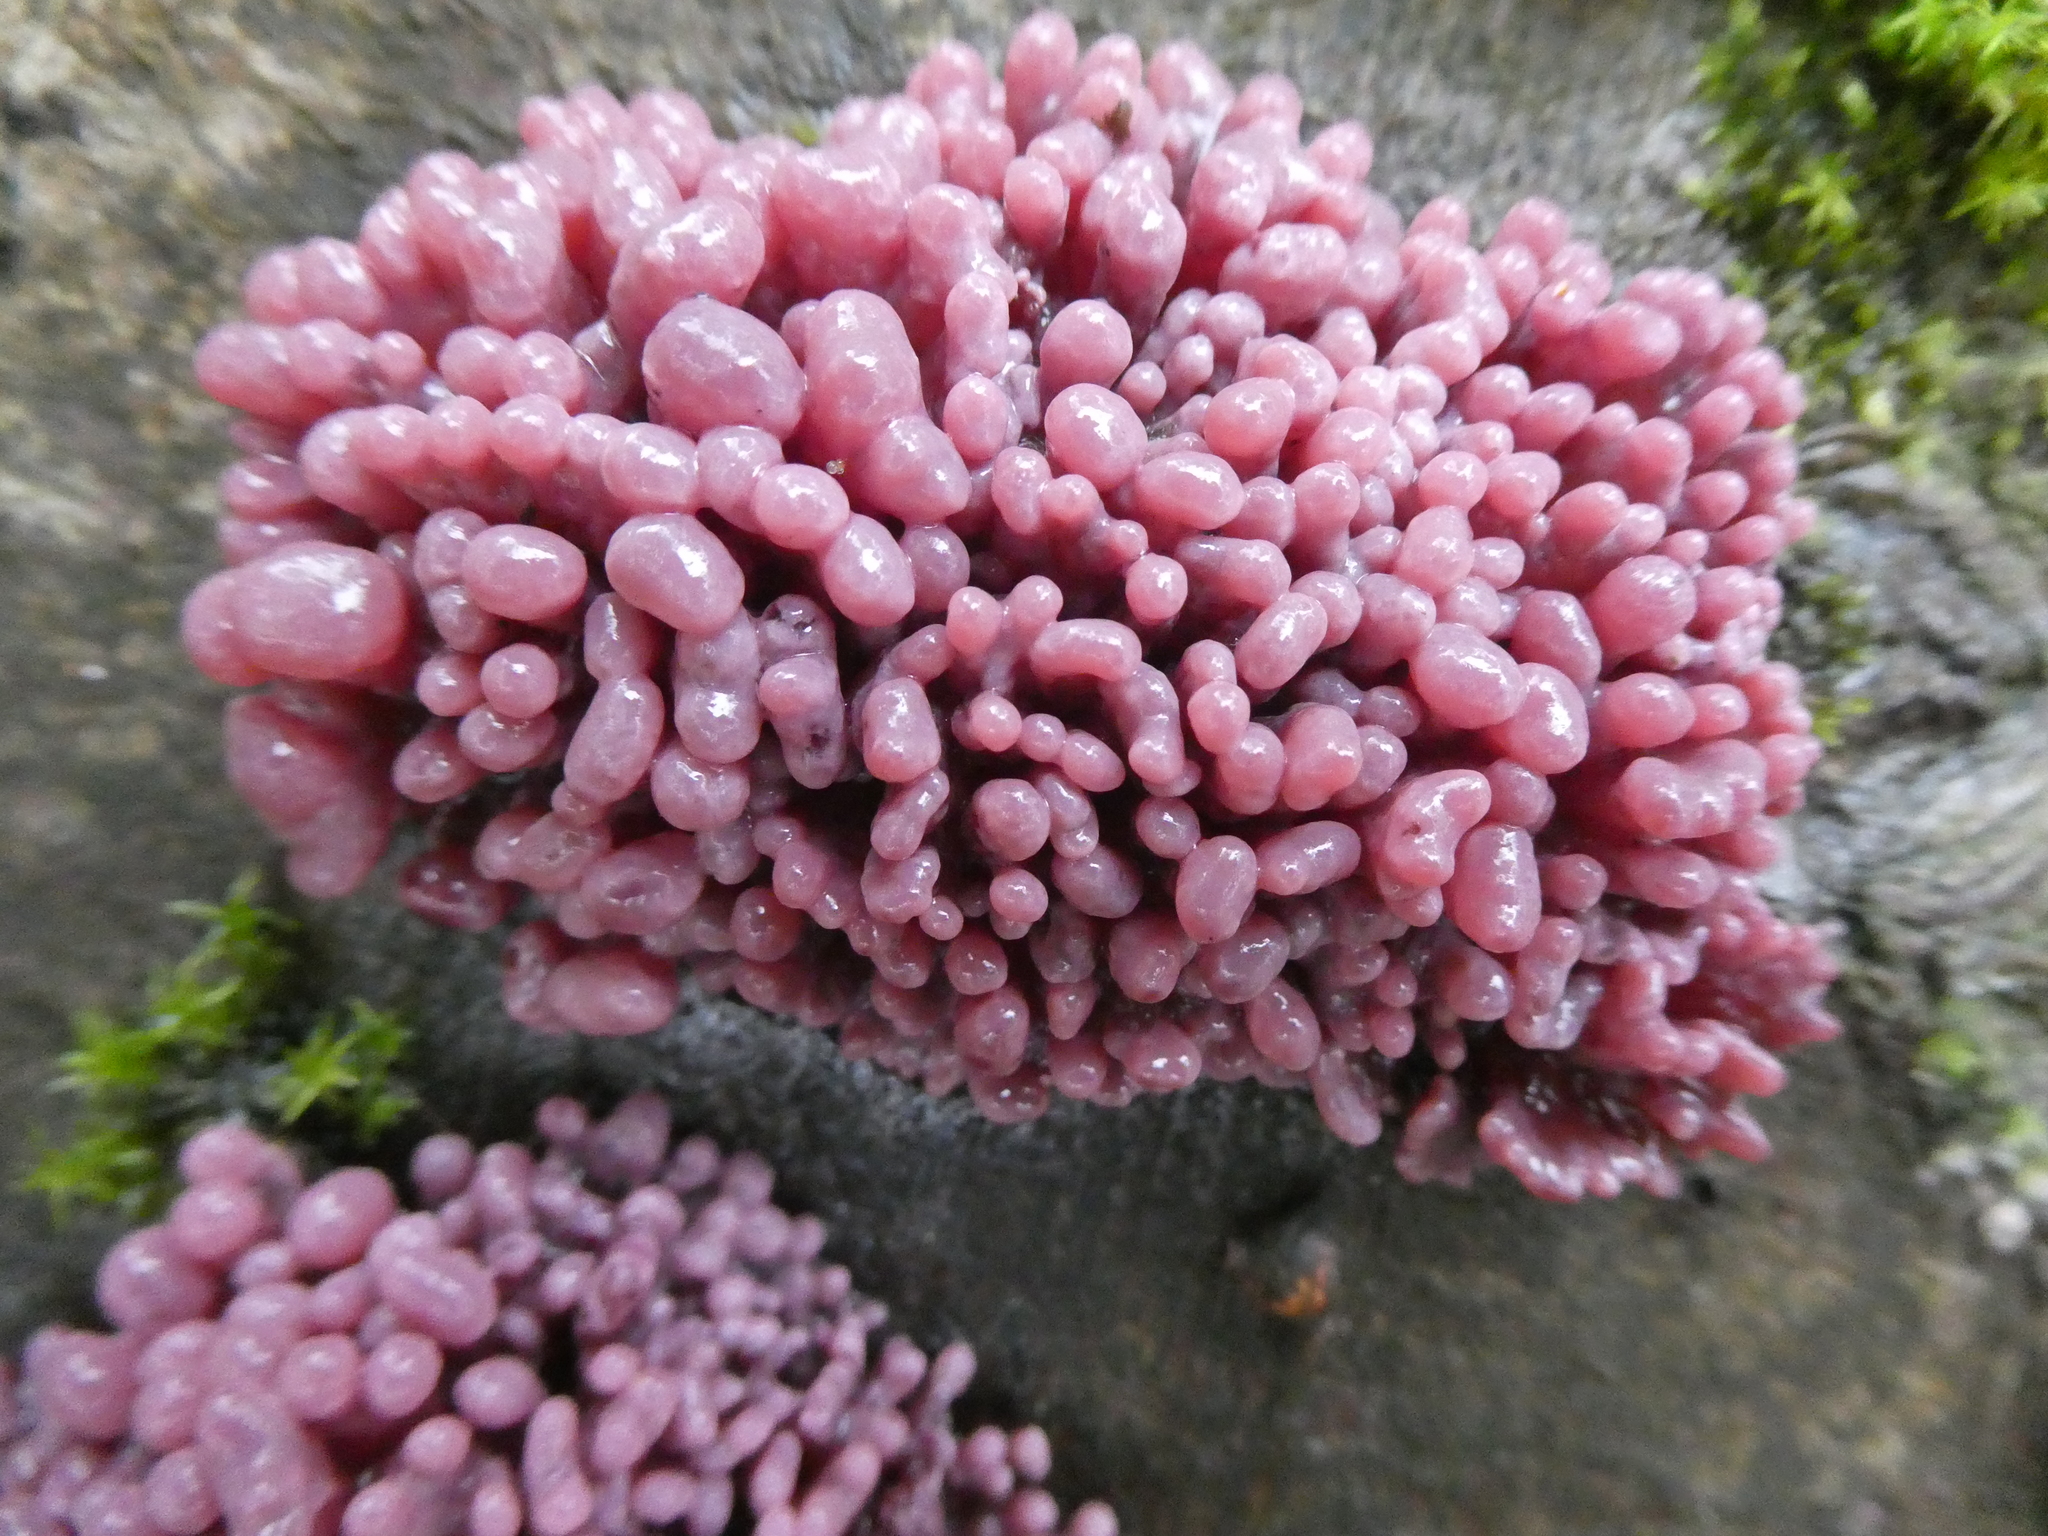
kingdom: Fungi
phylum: Ascomycota
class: Leotiomycetes
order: Helotiales
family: Gelatinodiscaceae
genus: Ascocoryne
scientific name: Ascocoryne sarcoides
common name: Purple jellydisc
